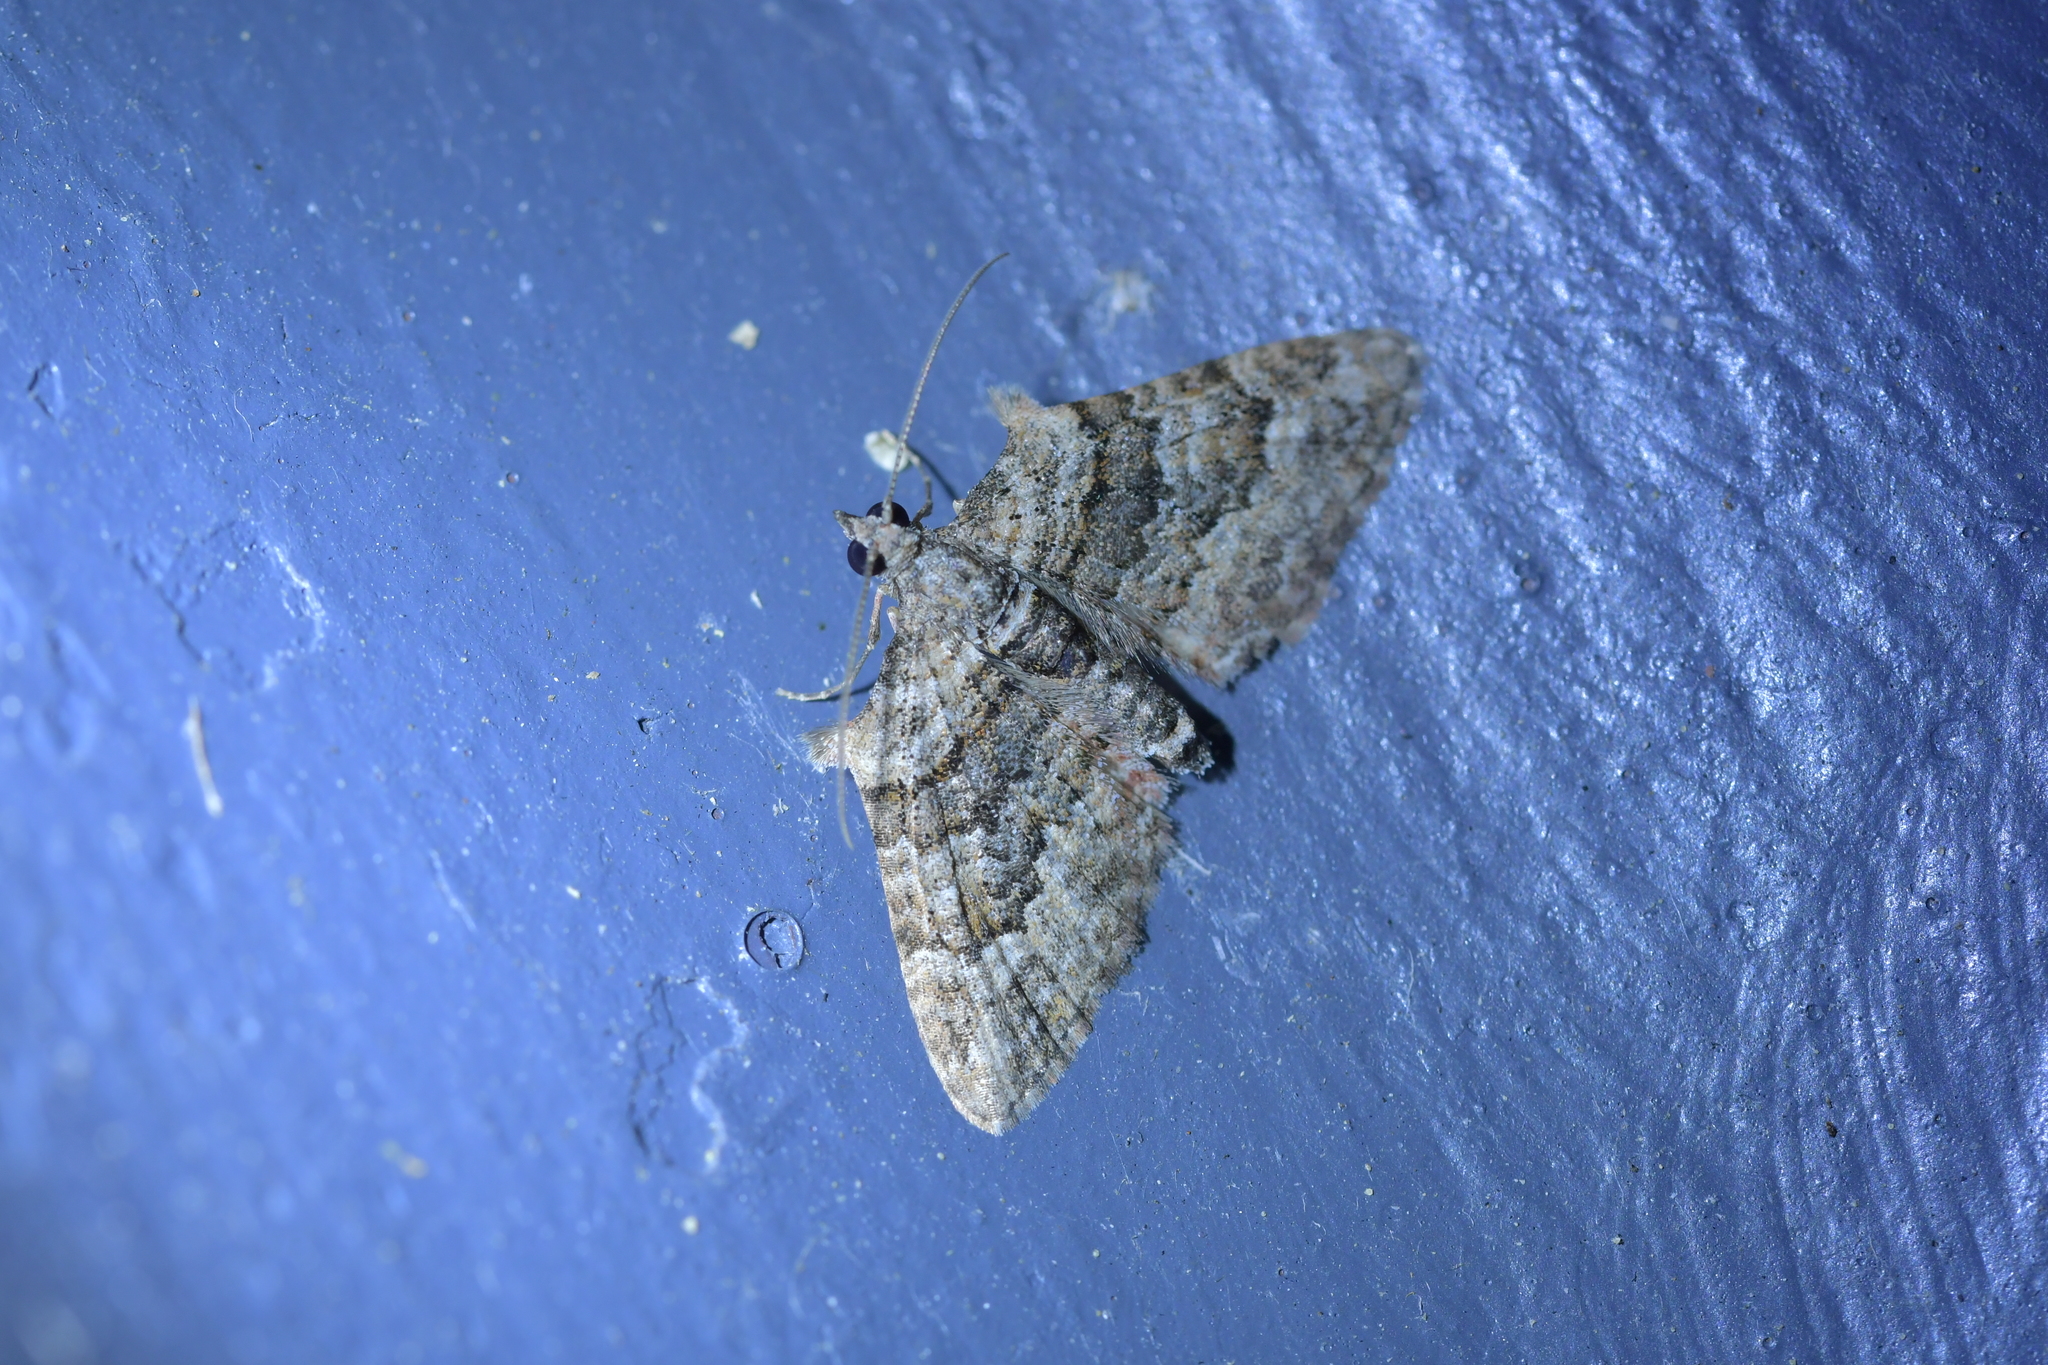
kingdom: Animalia
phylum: Arthropoda
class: Insecta
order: Lepidoptera
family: Geometridae
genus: Phrissogonus
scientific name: Phrissogonus laticostata
